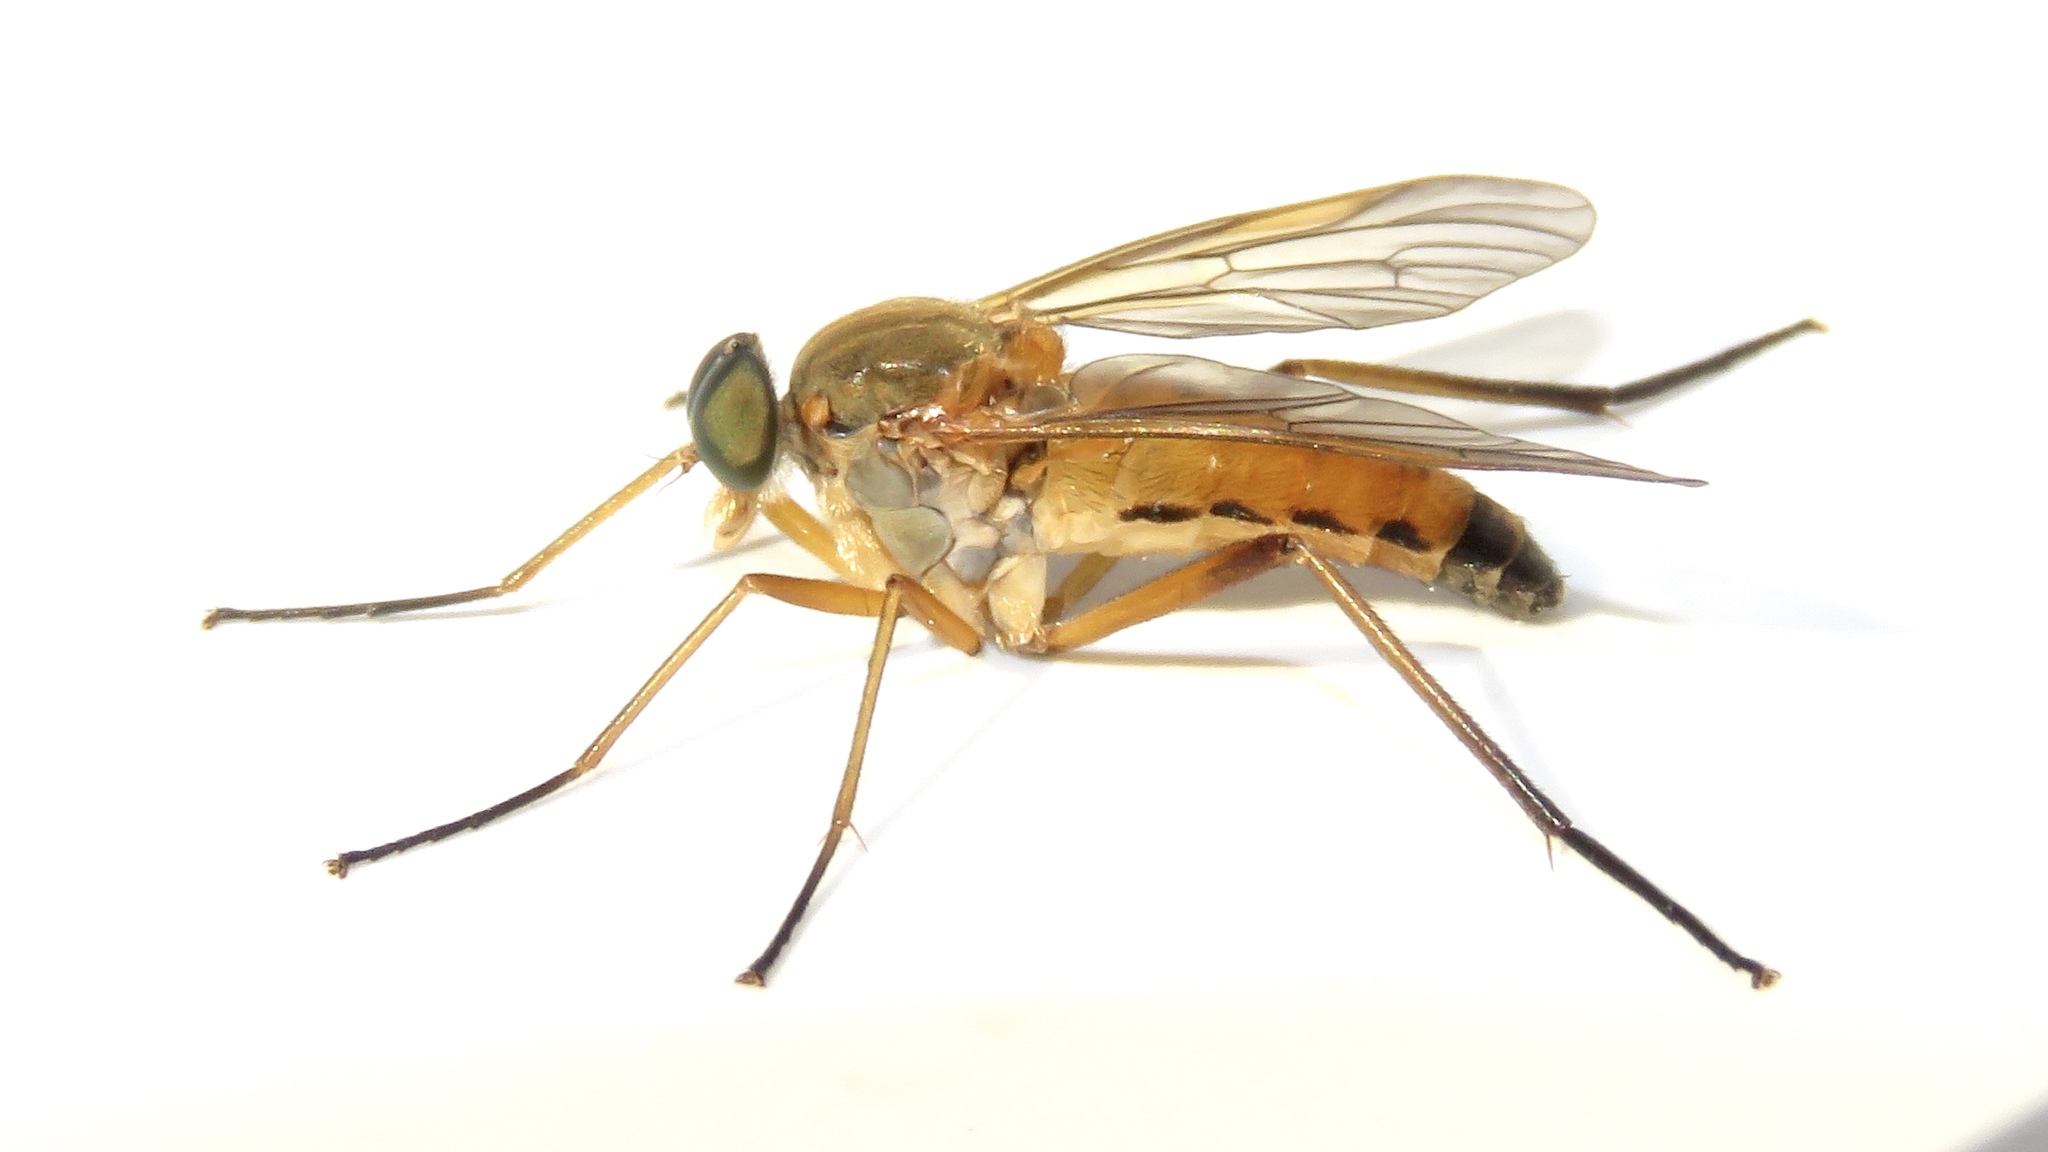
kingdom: Animalia
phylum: Arthropoda
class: Insecta
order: Diptera
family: Rhagionidae
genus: Rhagio
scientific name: Rhagio tringaria
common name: Marsh snipefly
